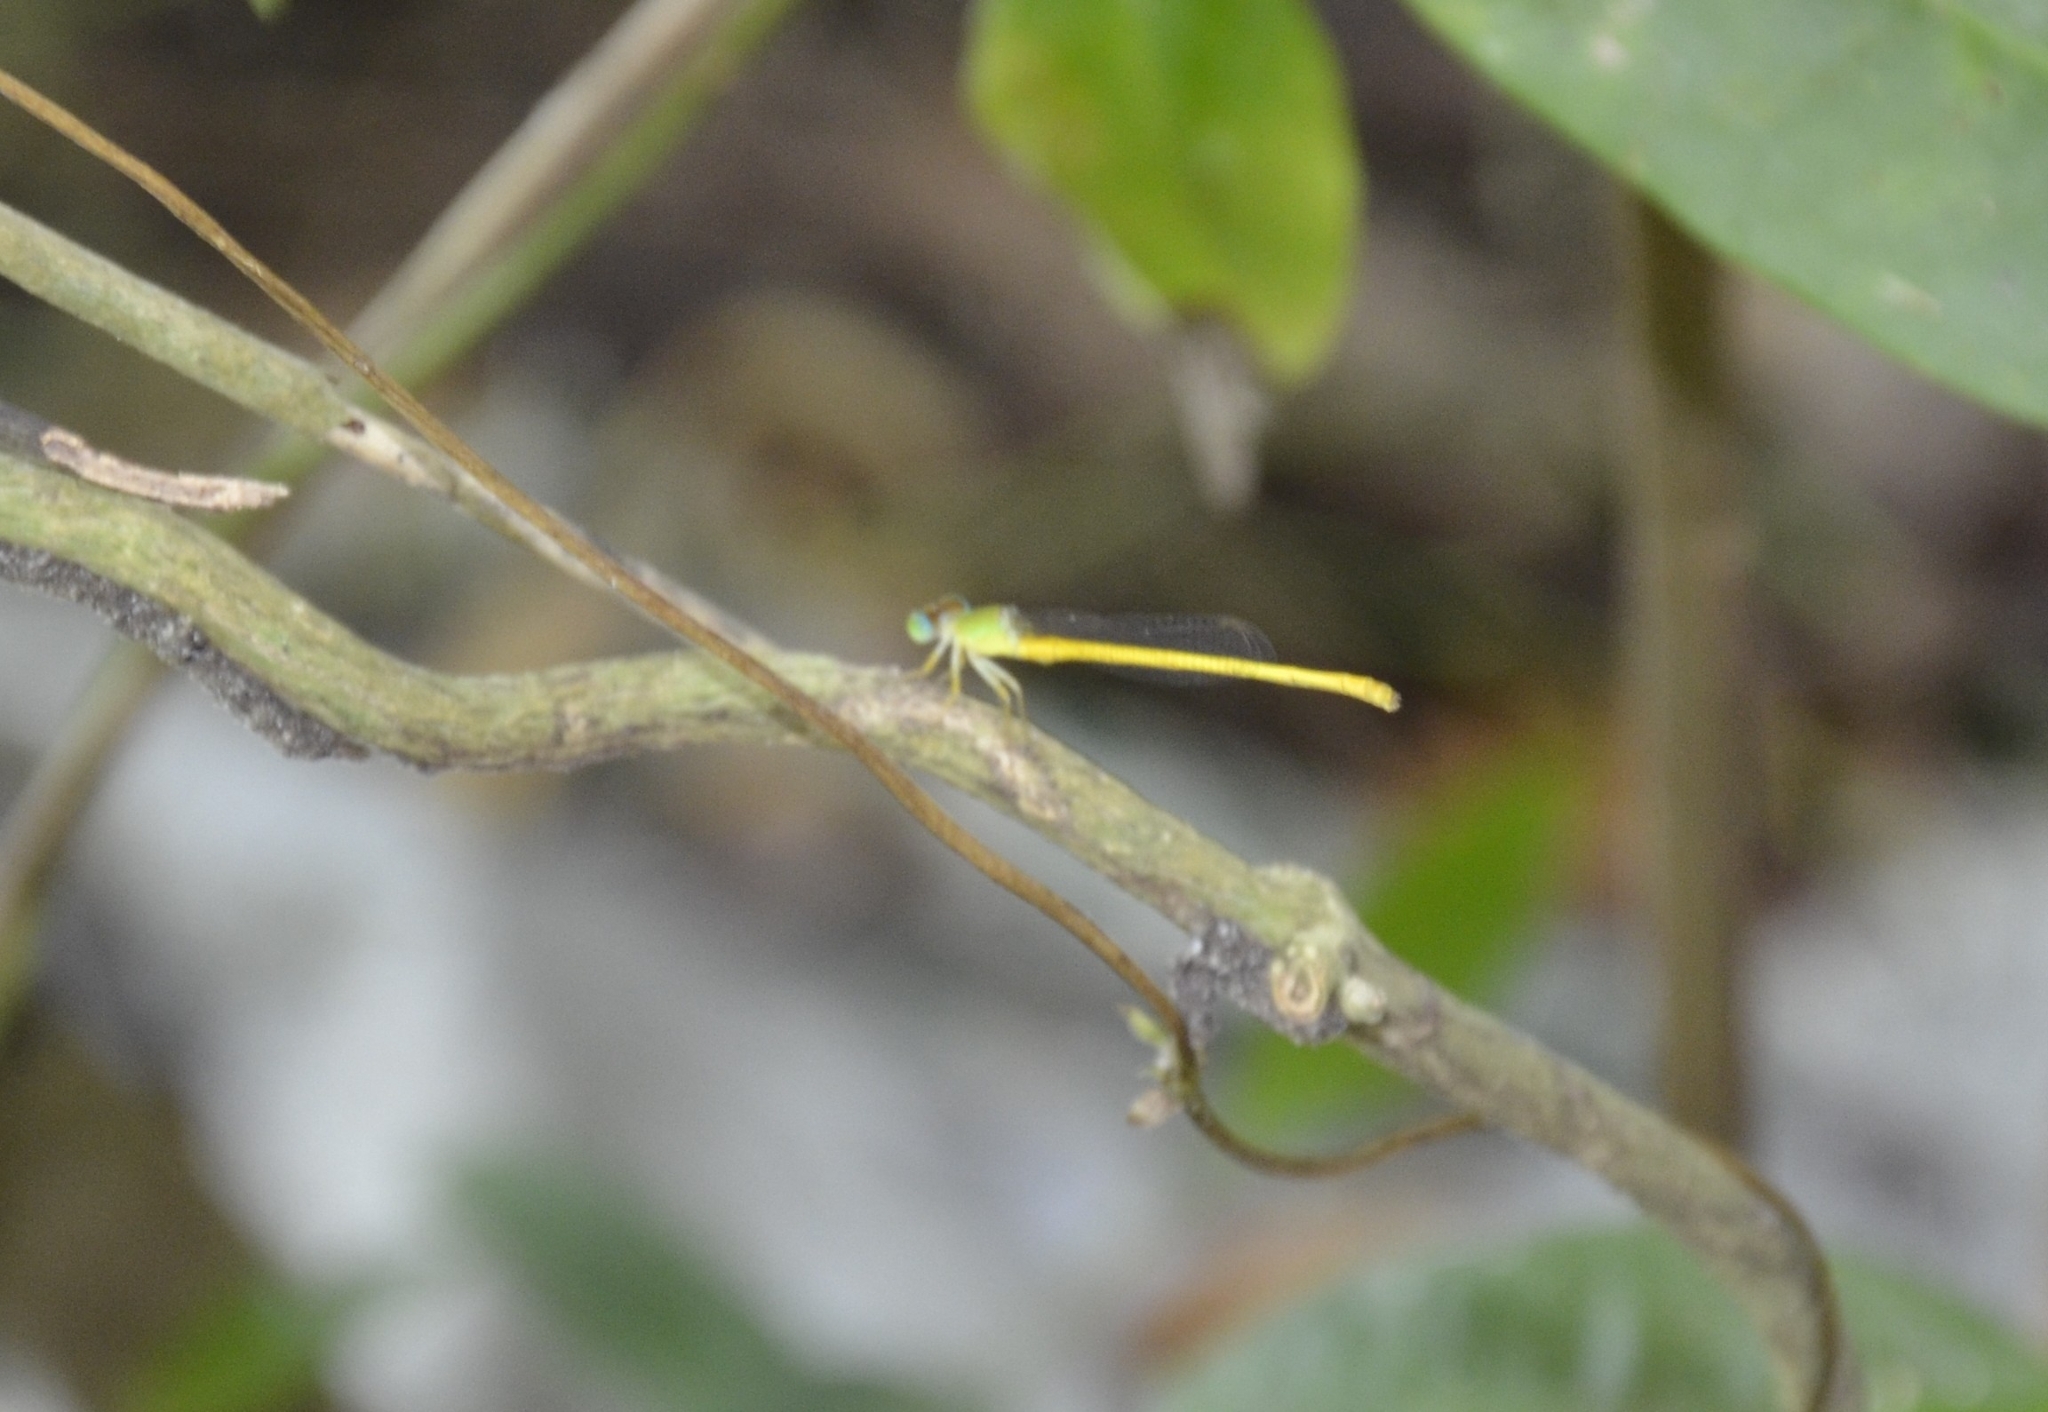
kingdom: Animalia
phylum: Arthropoda
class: Insecta
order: Odonata
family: Coenagrionidae
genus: Ceriagrion
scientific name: Ceriagrion coromandelianum
